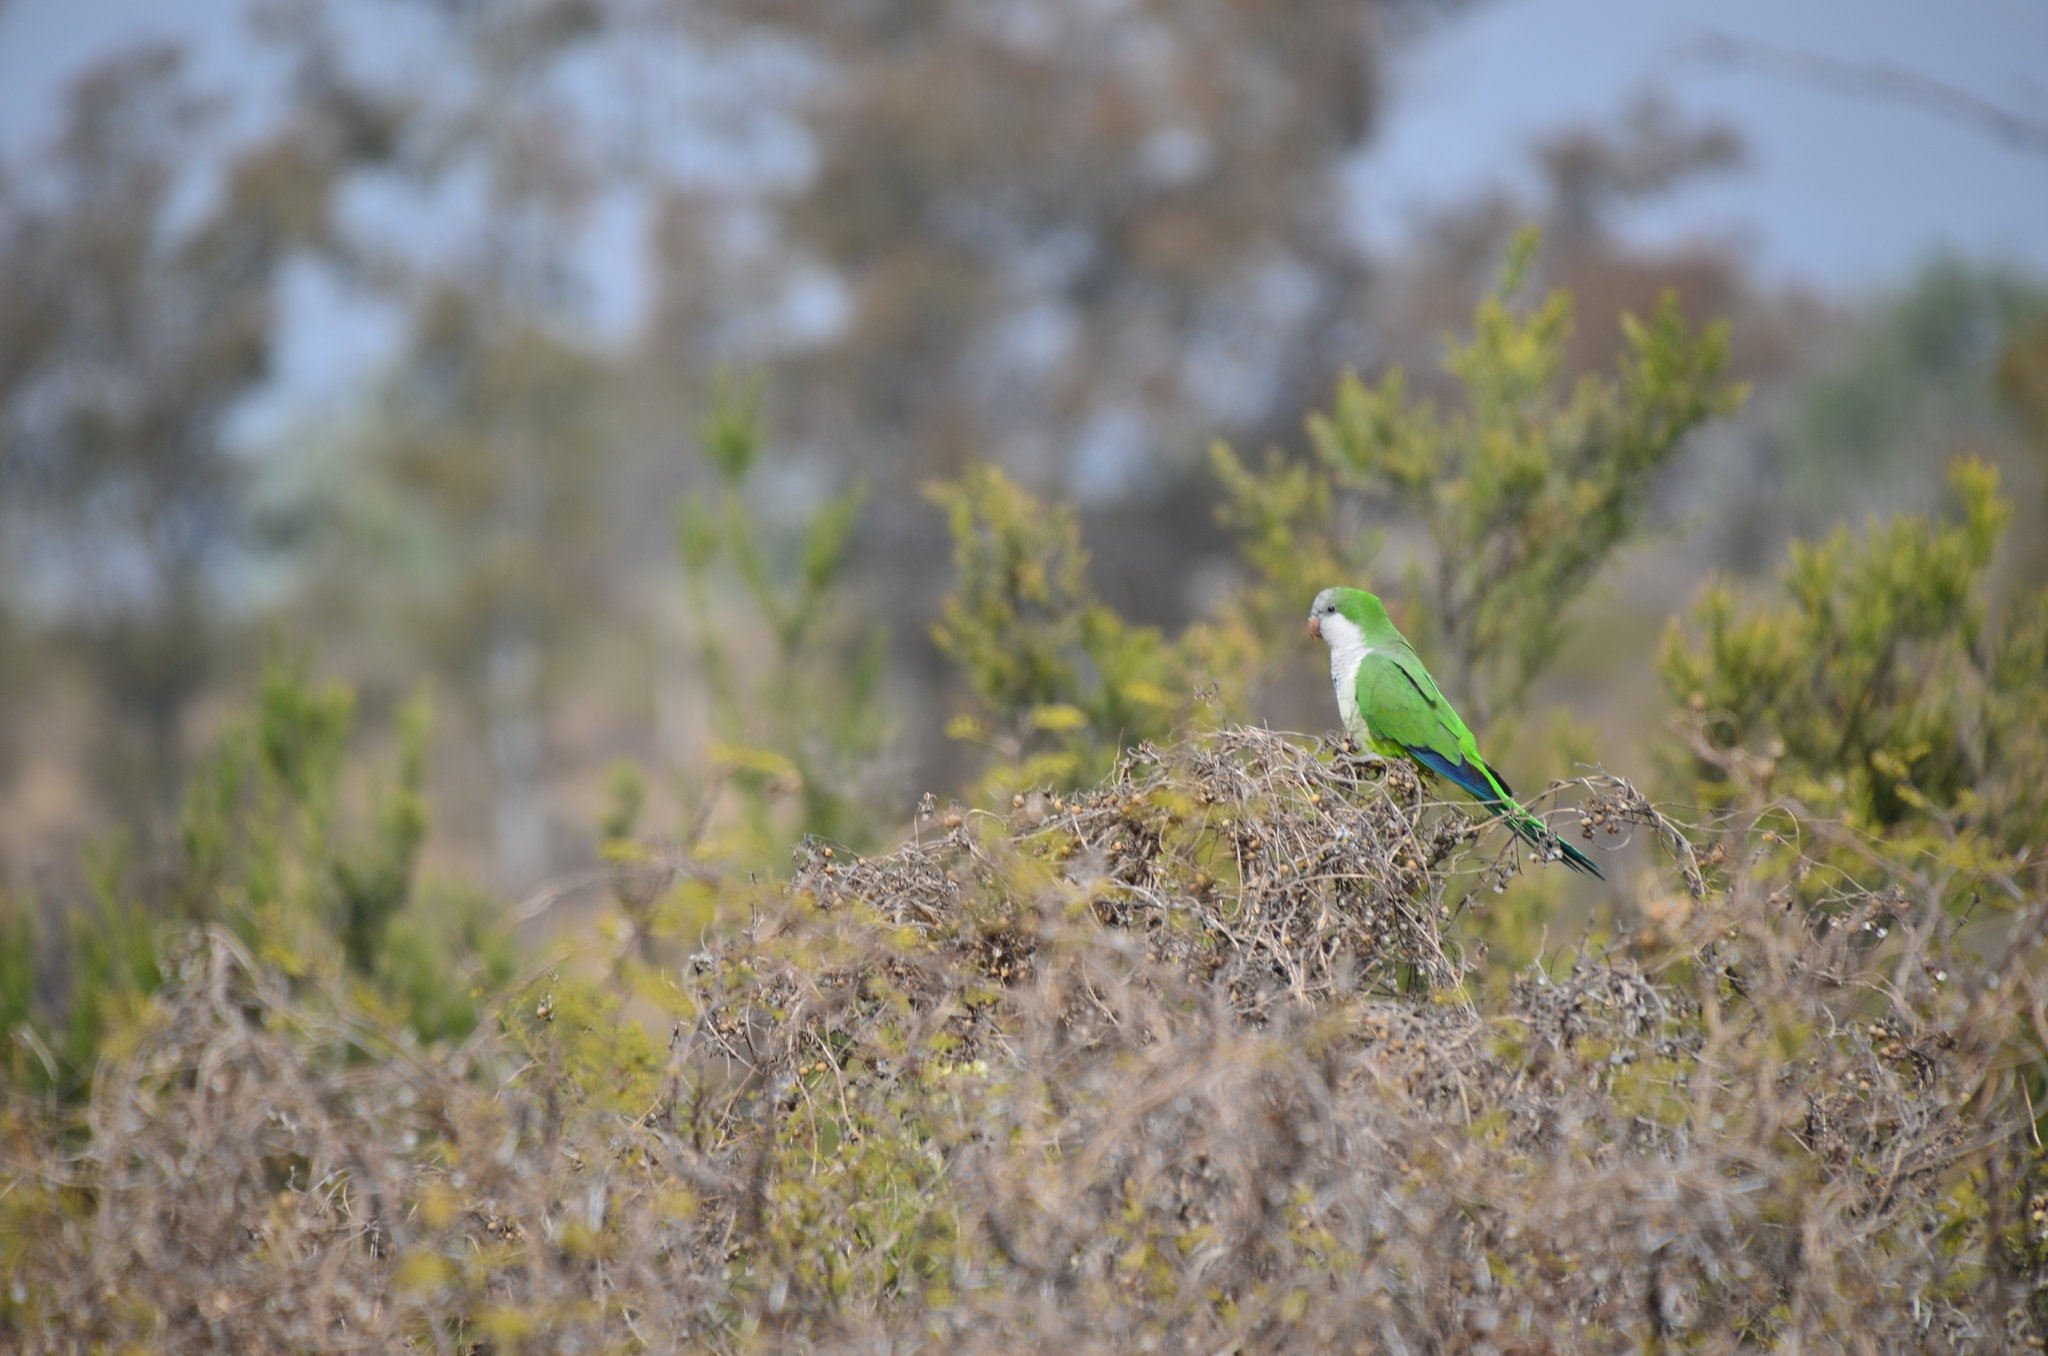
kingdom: Animalia
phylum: Chordata
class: Aves
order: Psittaciformes
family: Psittacidae
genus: Myiopsitta
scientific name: Myiopsitta monachus
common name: Monk parakeet
